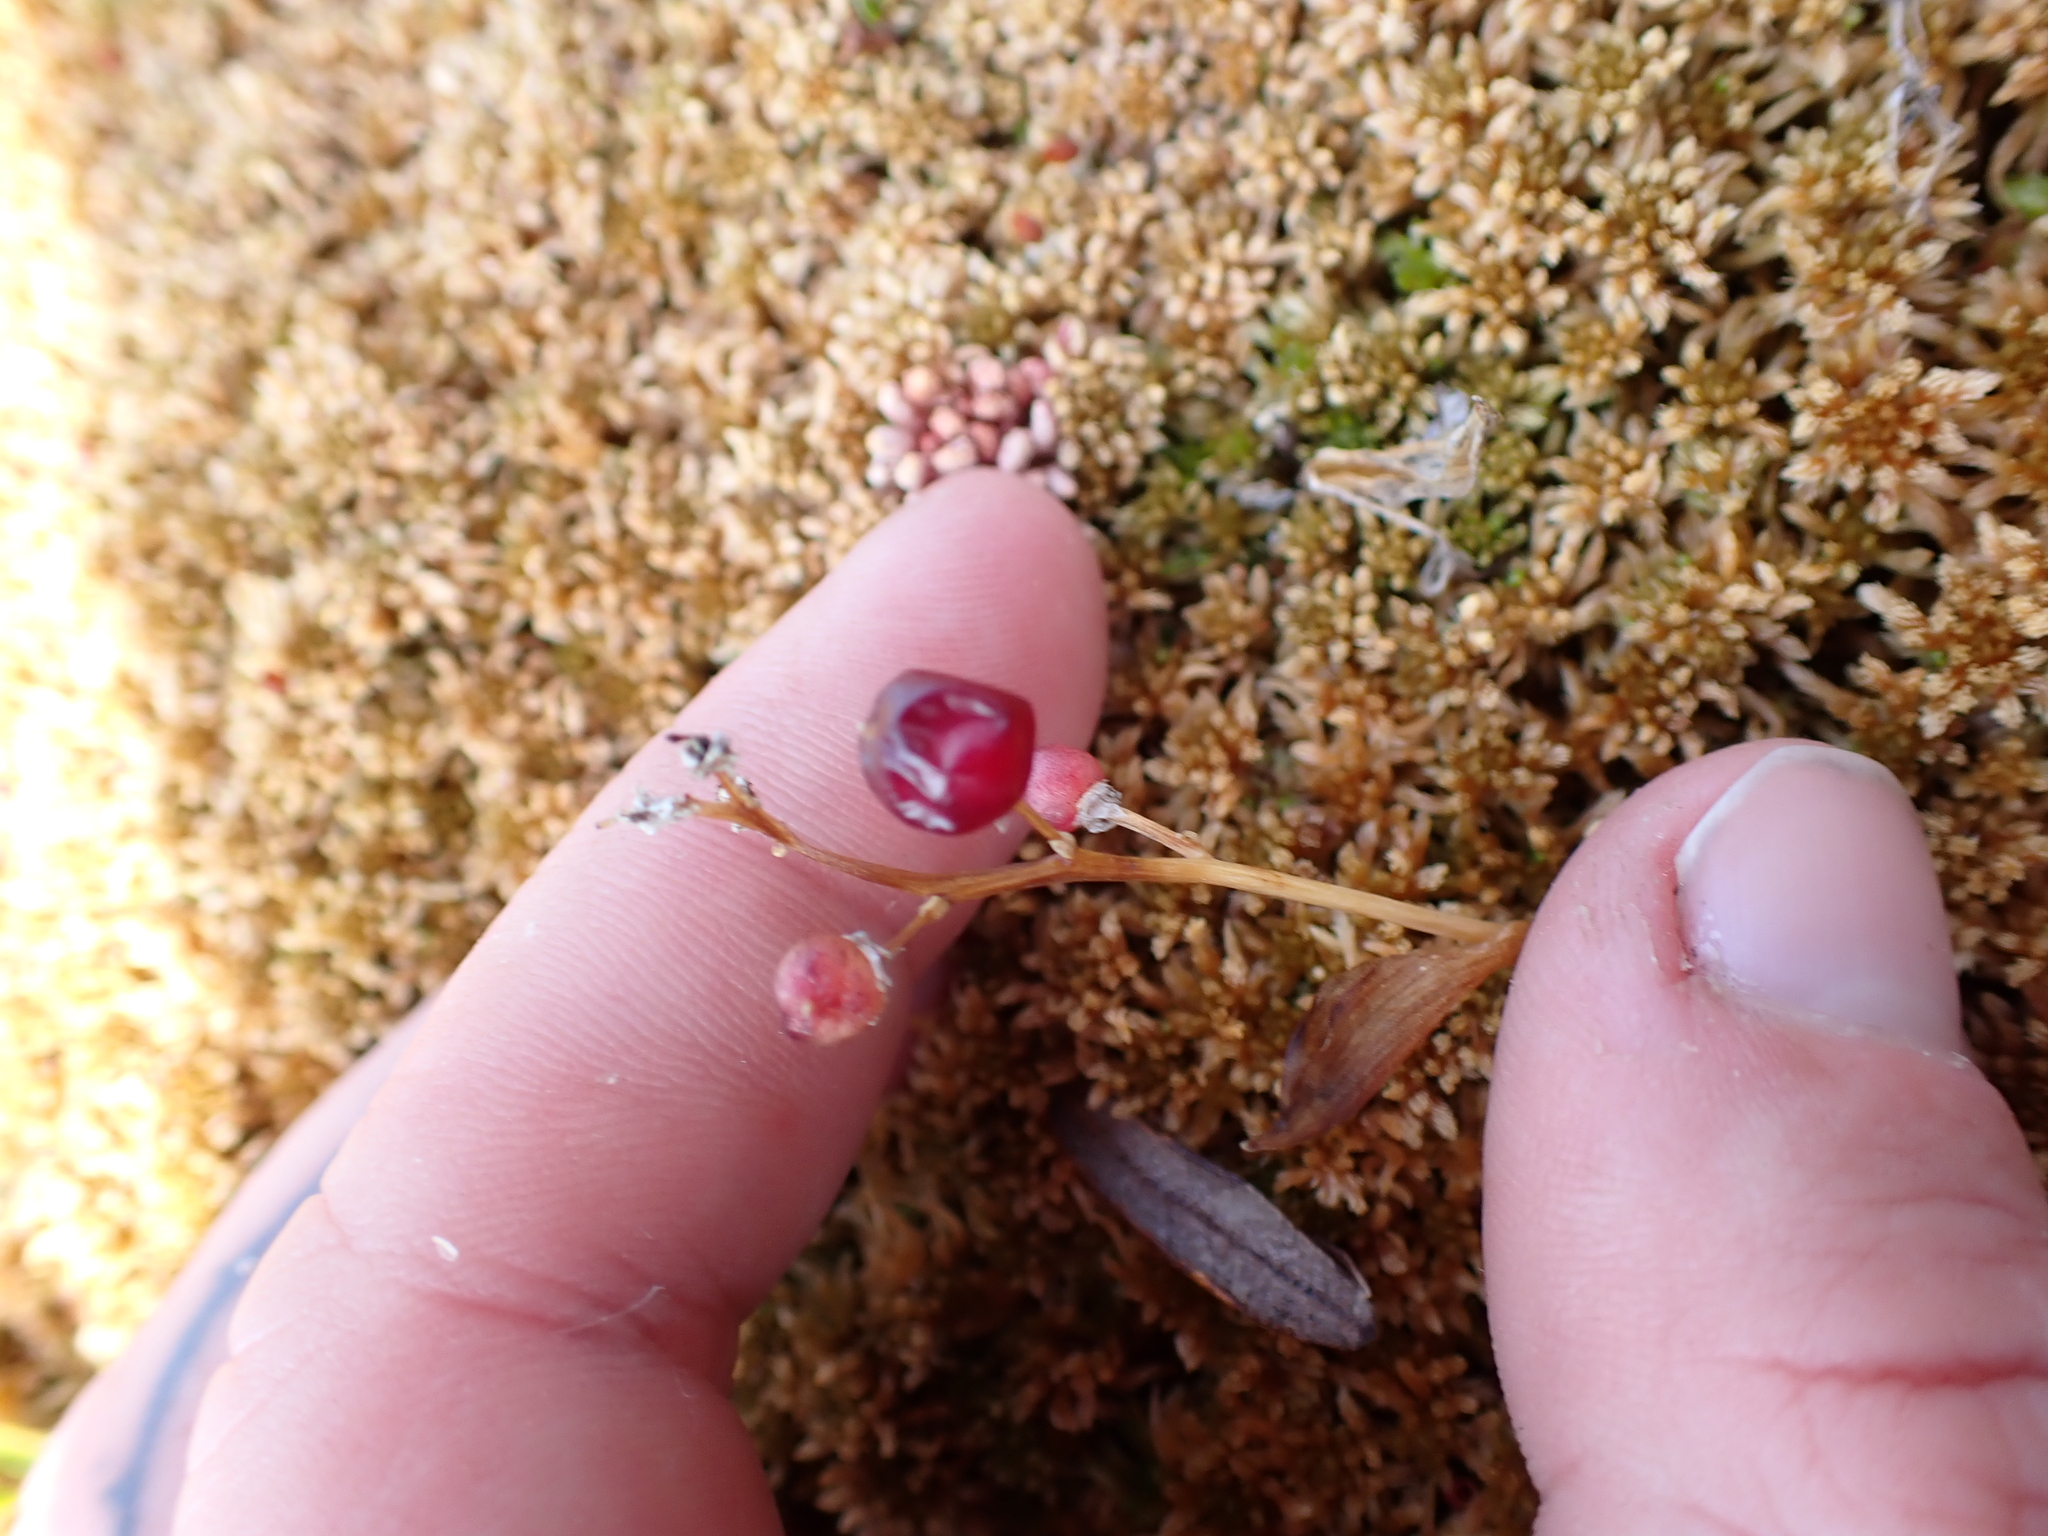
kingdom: Plantae
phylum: Tracheophyta
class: Liliopsida
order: Asparagales
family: Asparagaceae
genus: Maianthemum
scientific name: Maianthemum trifolium
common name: Swamp false solomon's seal
